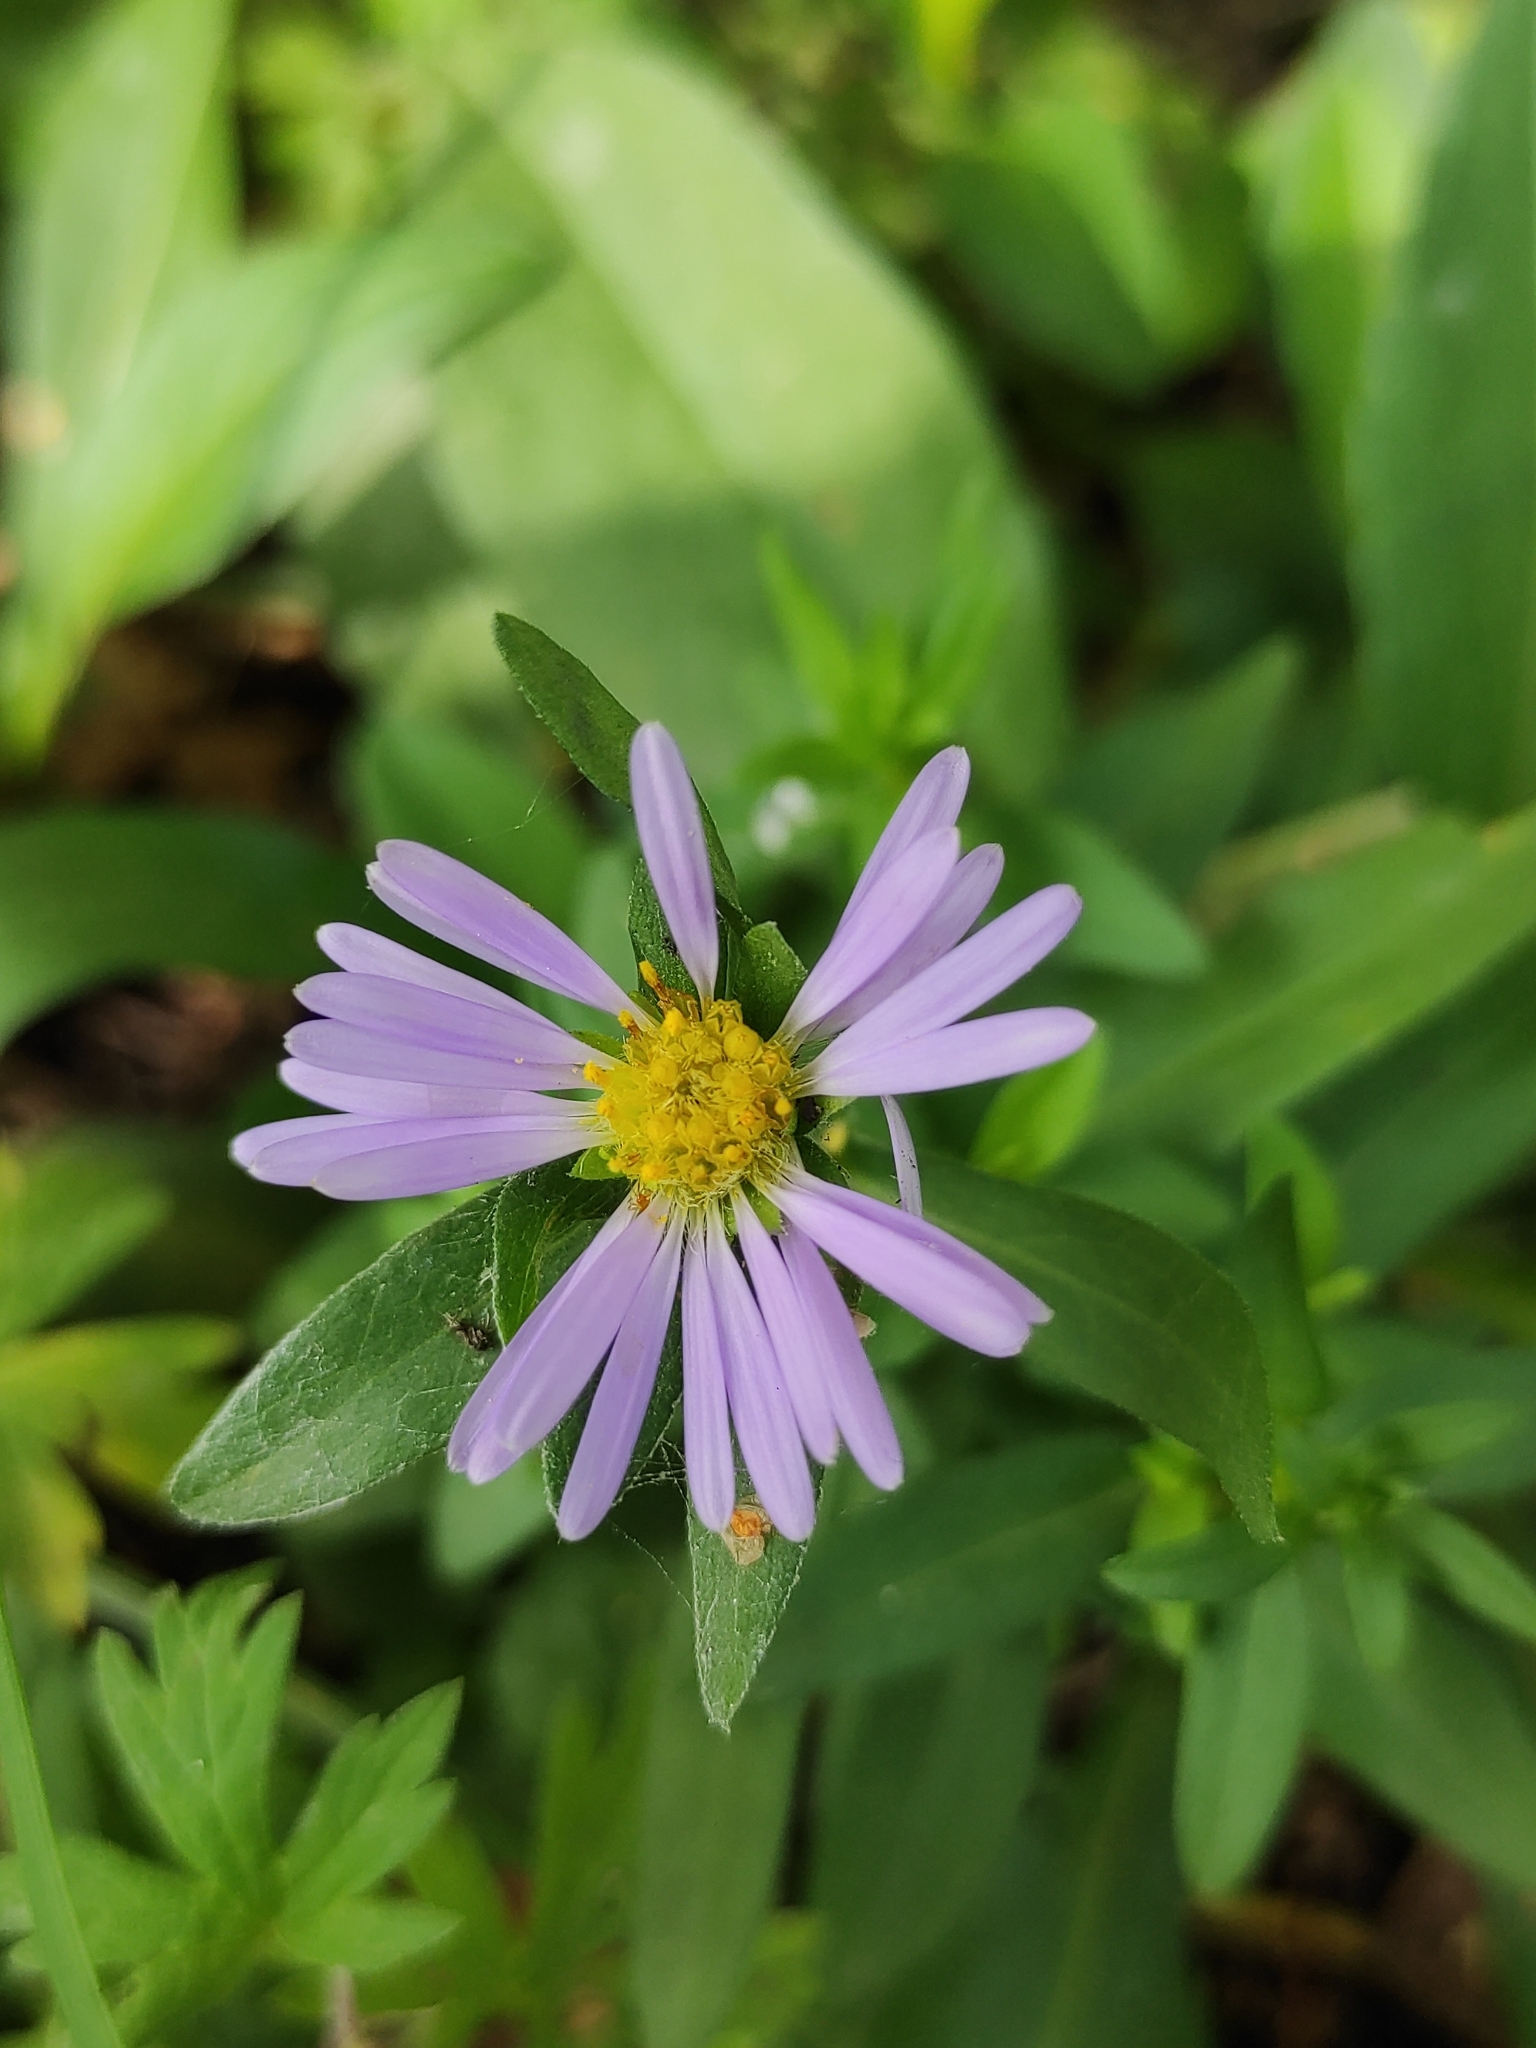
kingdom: Plantae
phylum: Tracheophyta
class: Magnoliopsida
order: Asterales
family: Asteraceae
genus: Symphyotrichum
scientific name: Symphyotrichum novi-belgii
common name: Michaelmas daisy
